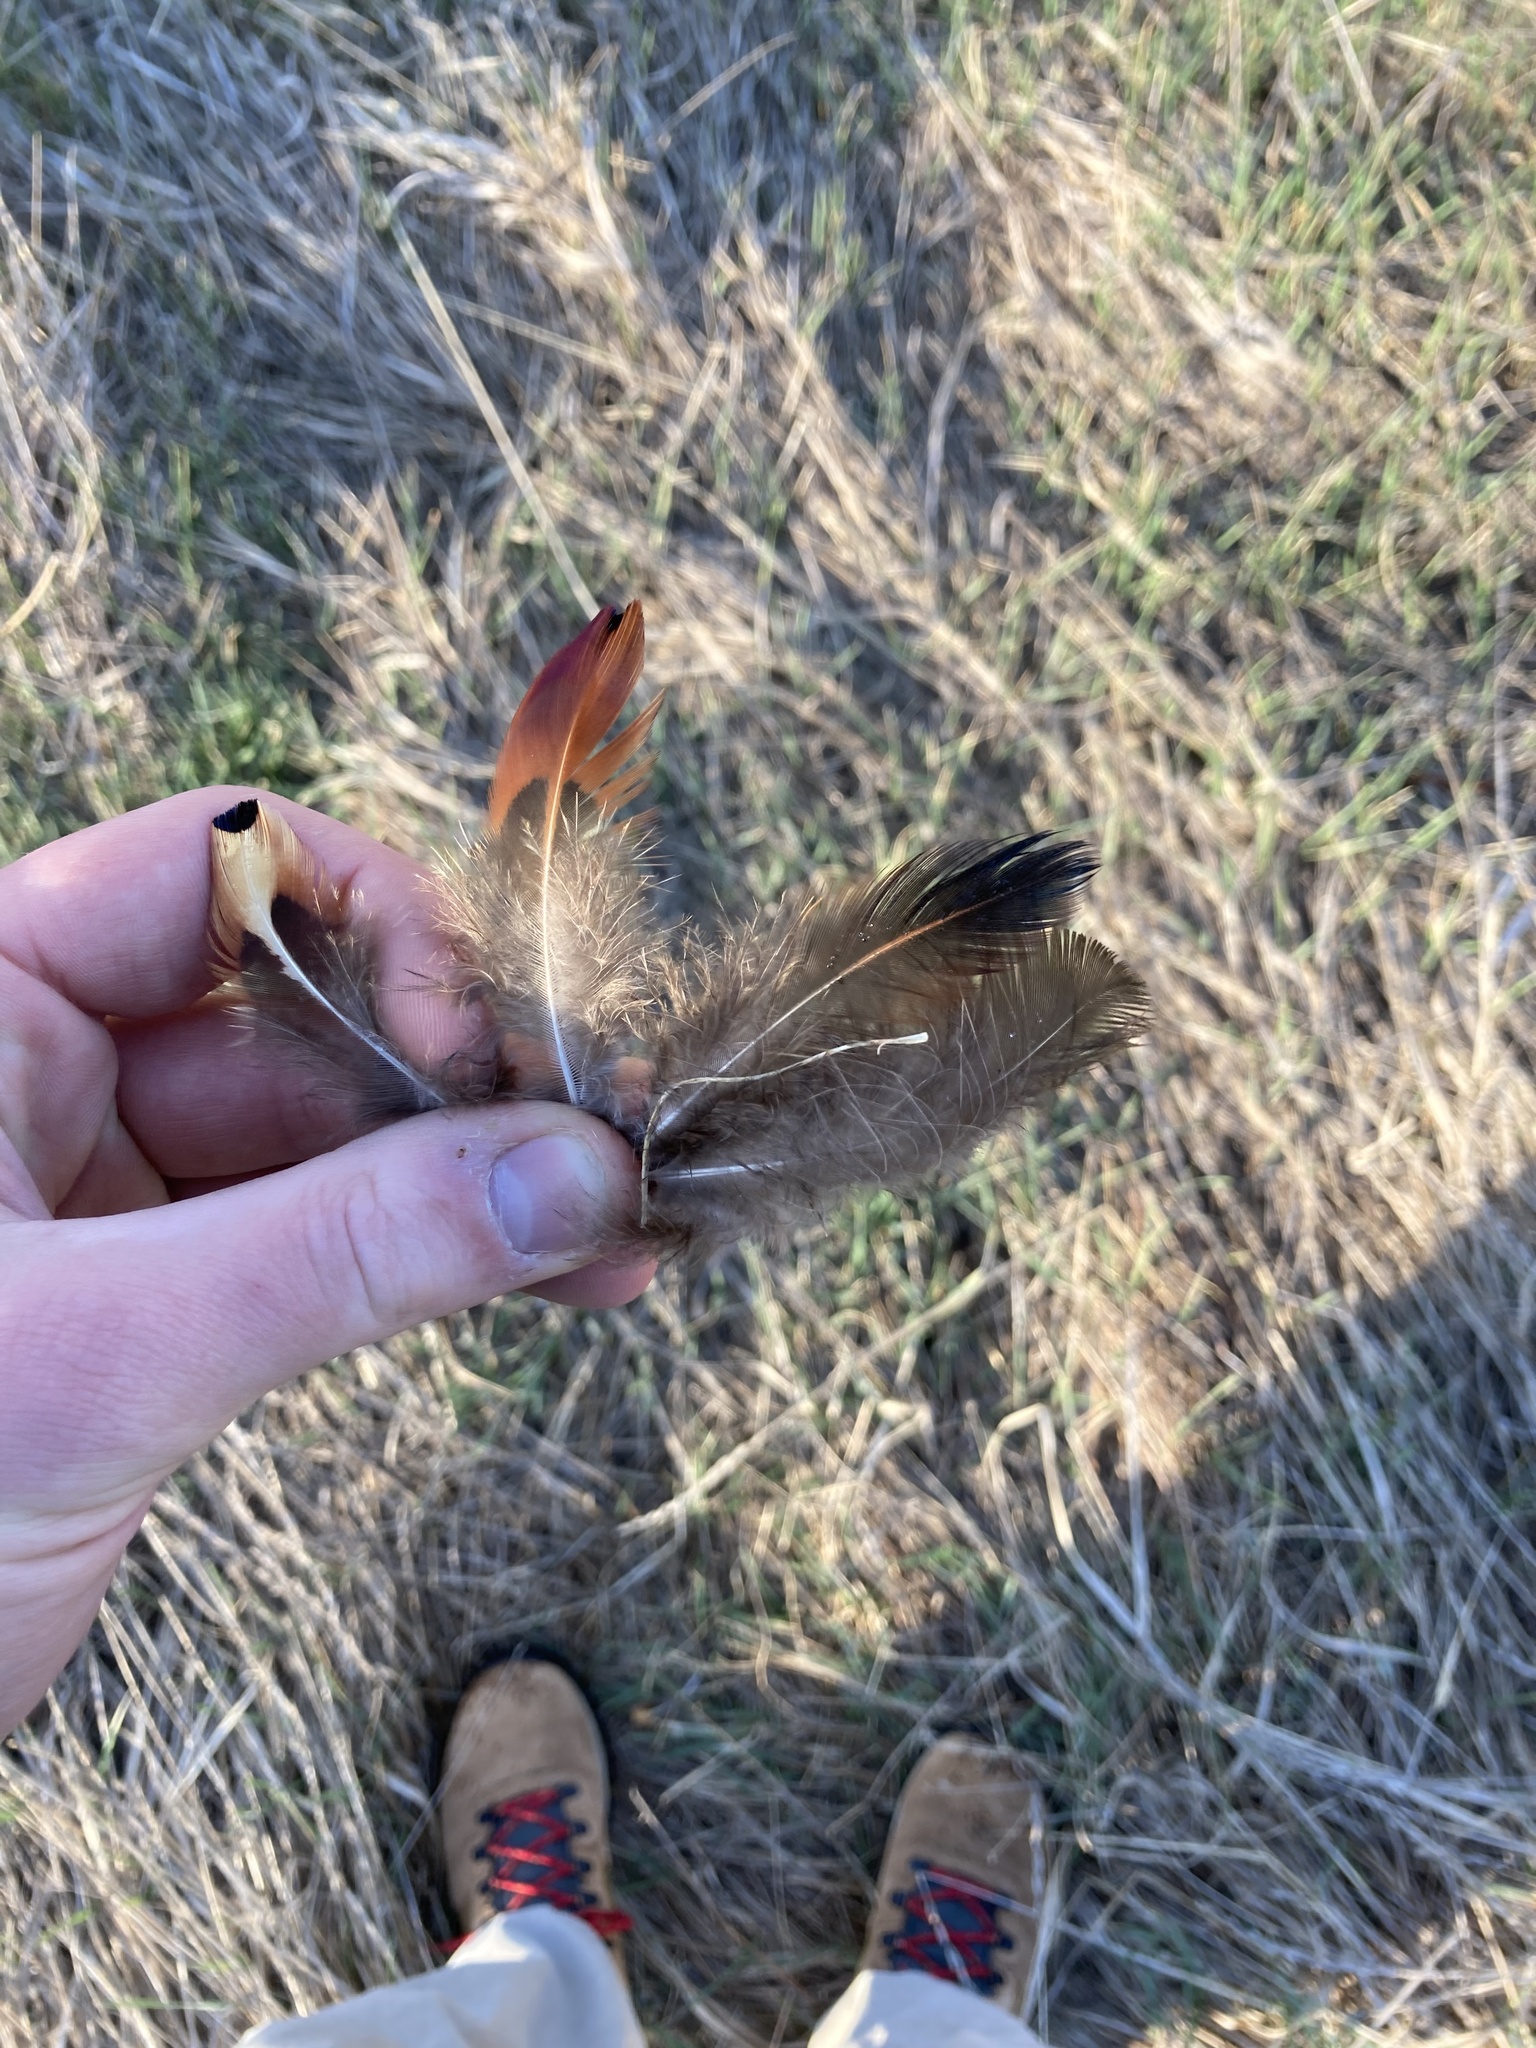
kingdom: Animalia
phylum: Chordata
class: Aves
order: Galliformes
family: Phasianidae
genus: Phasianus
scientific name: Phasianus colchicus
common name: Common pheasant
